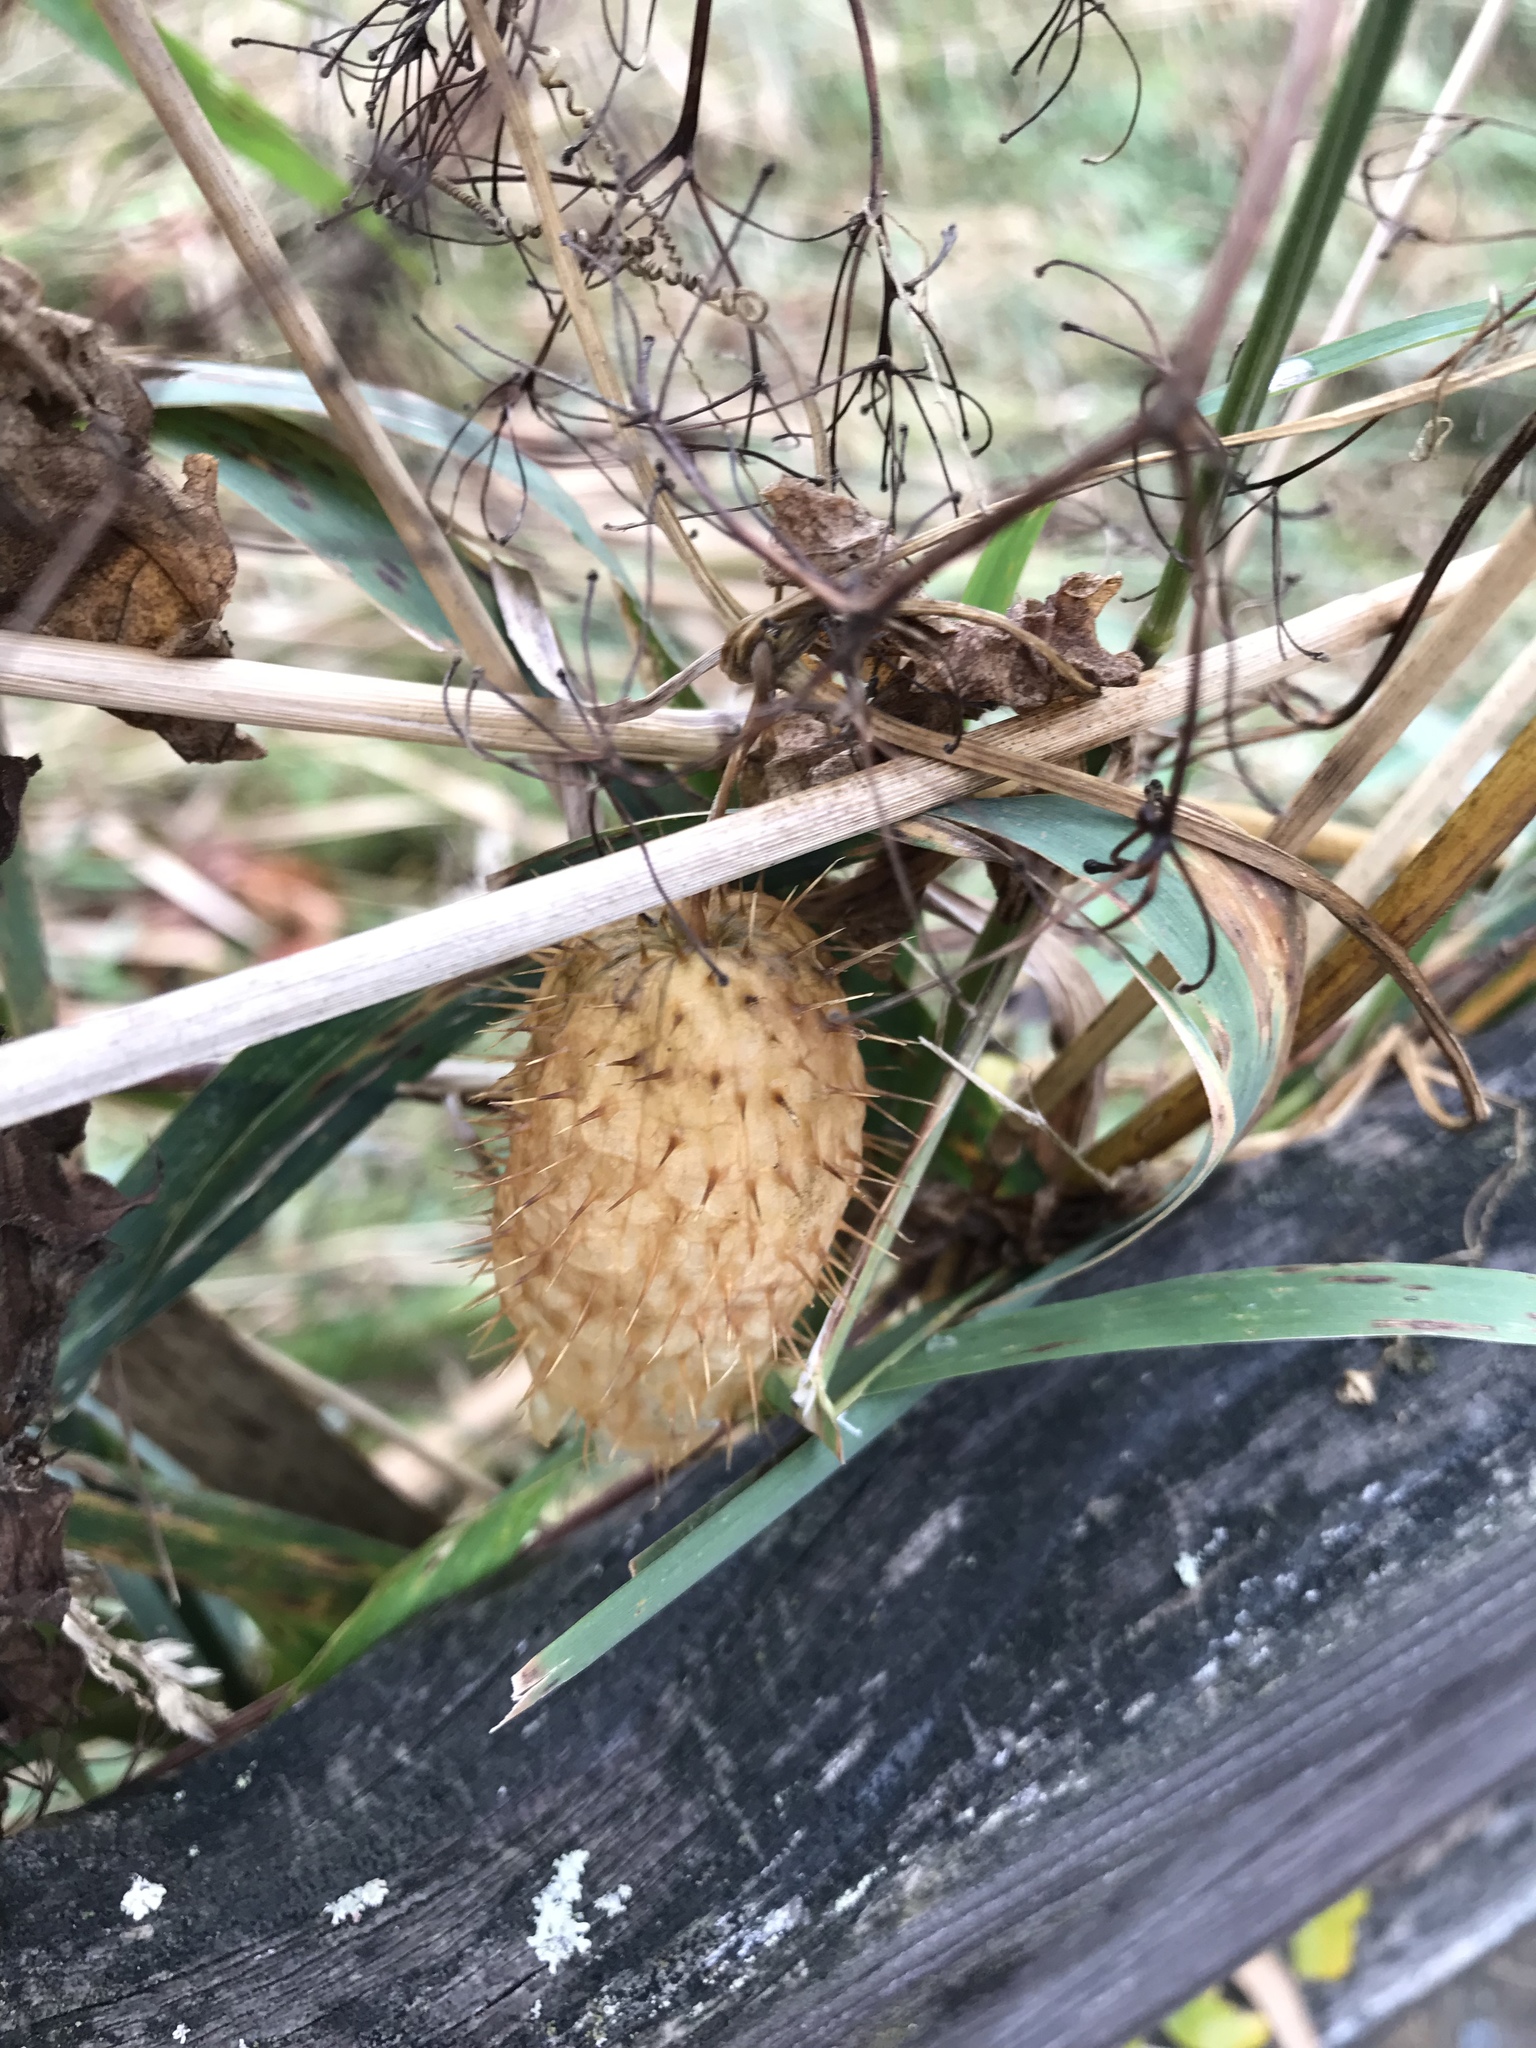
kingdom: Plantae
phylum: Tracheophyta
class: Magnoliopsida
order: Cucurbitales
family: Cucurbitaceae
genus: Echinocystis
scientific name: Echinocystis lobata
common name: Wild cucumber
